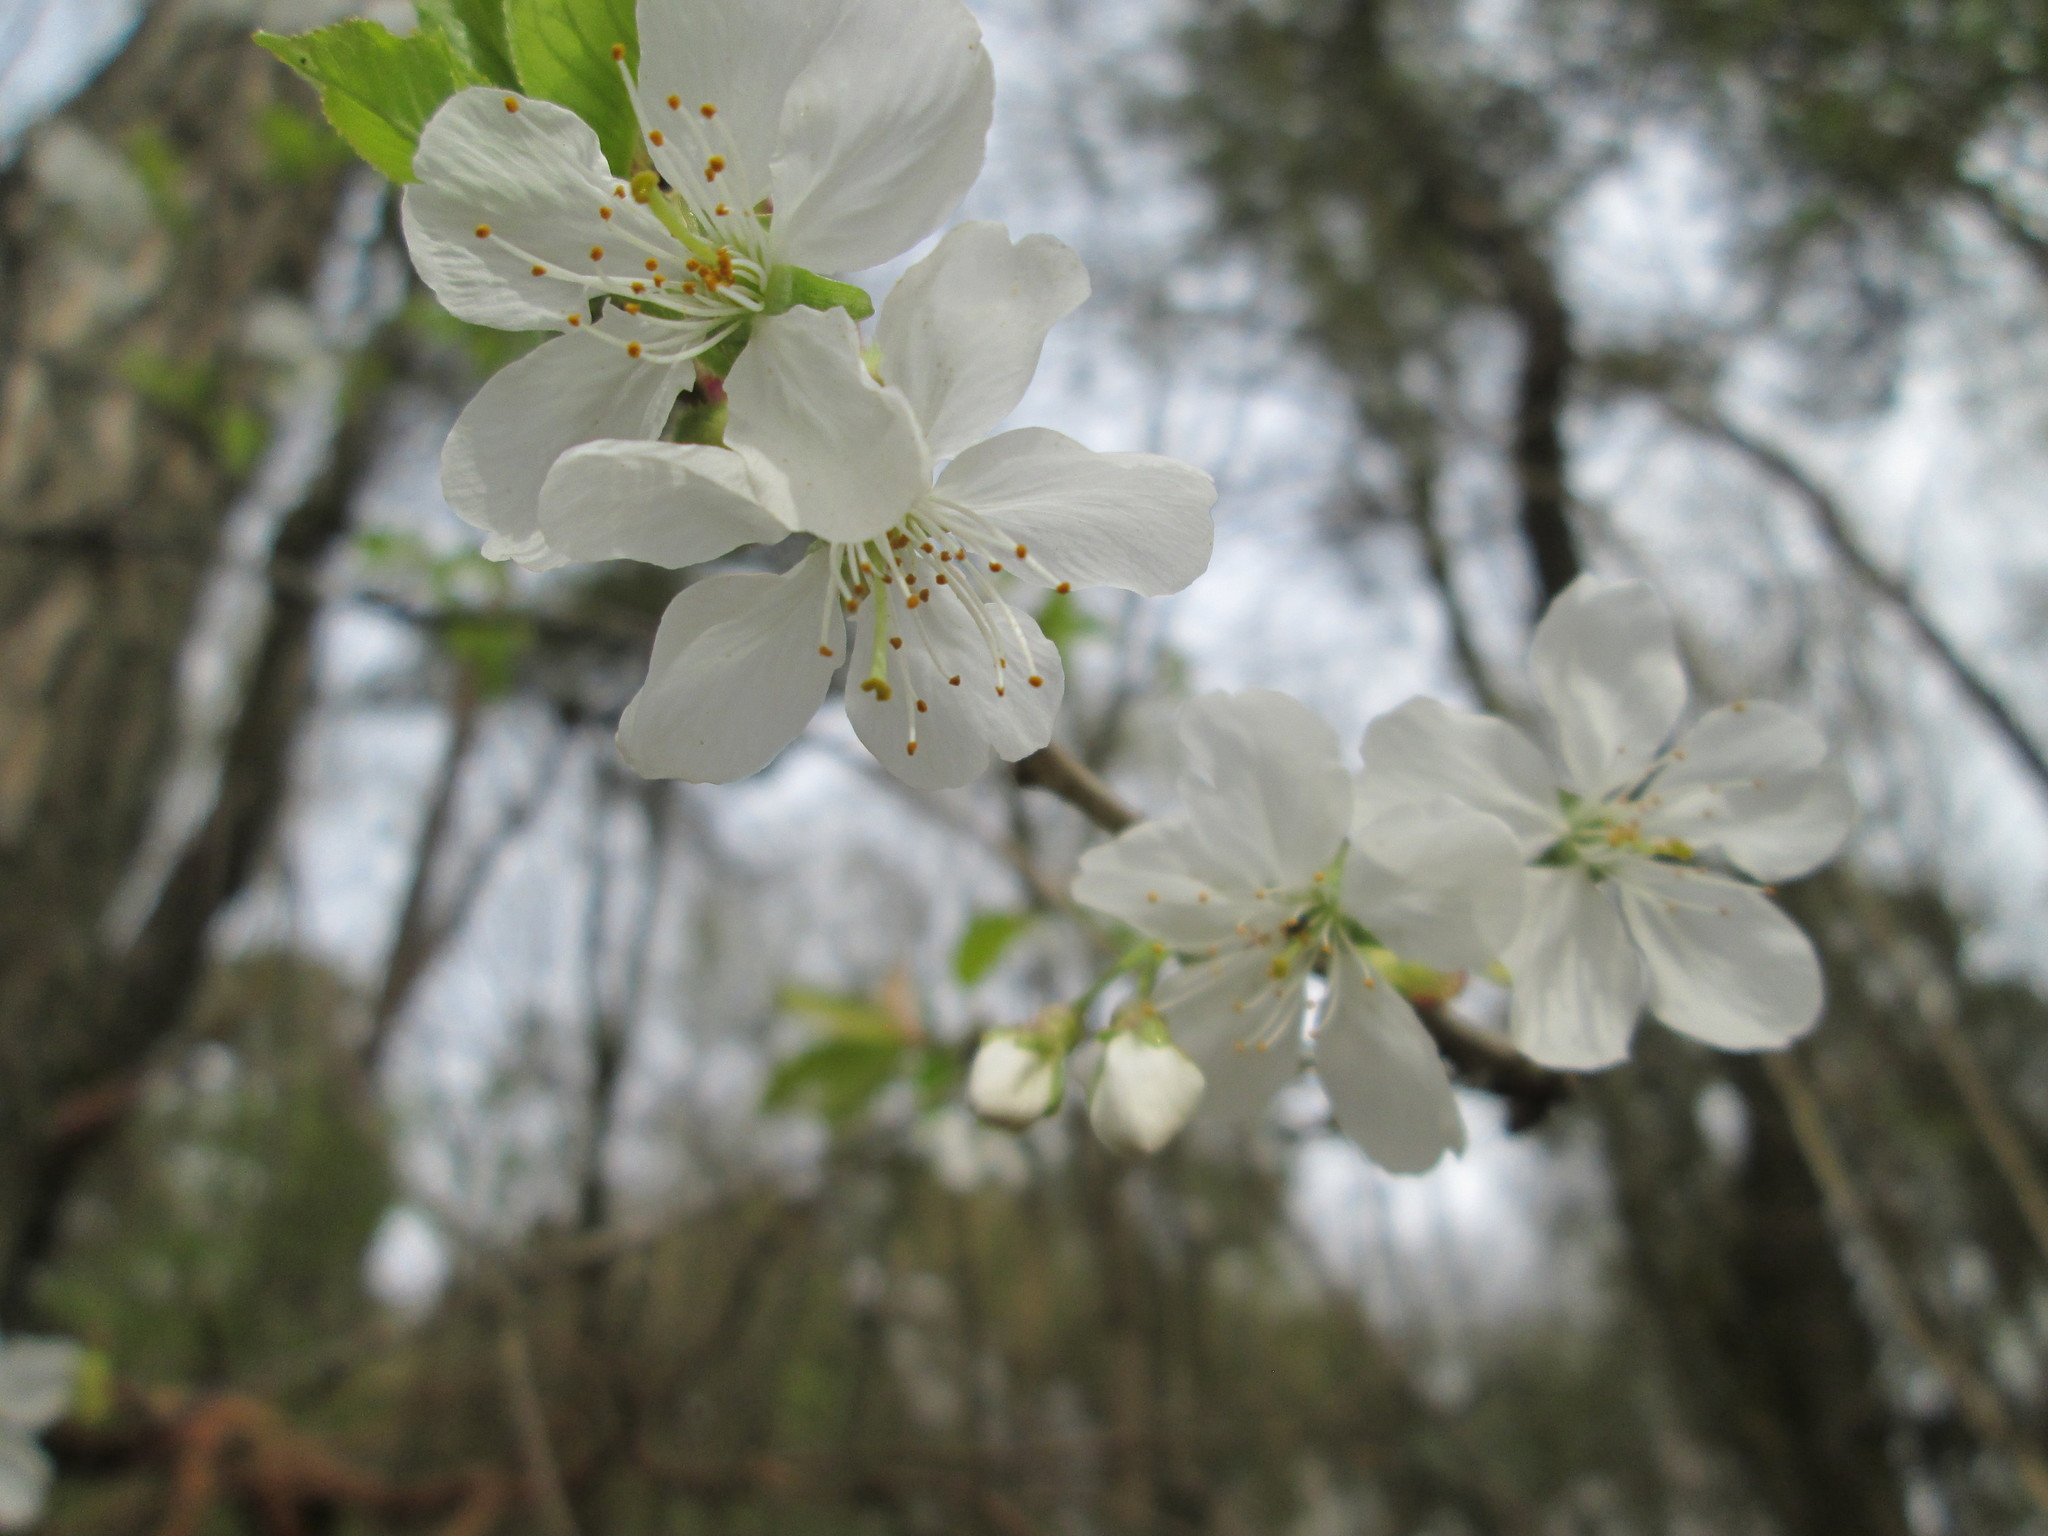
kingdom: Plantae
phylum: Tracheophyta
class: Magnoliopsida
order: Rosales
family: Rosaceae
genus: Prunus
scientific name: Prunus avium
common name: Sweet cherry
